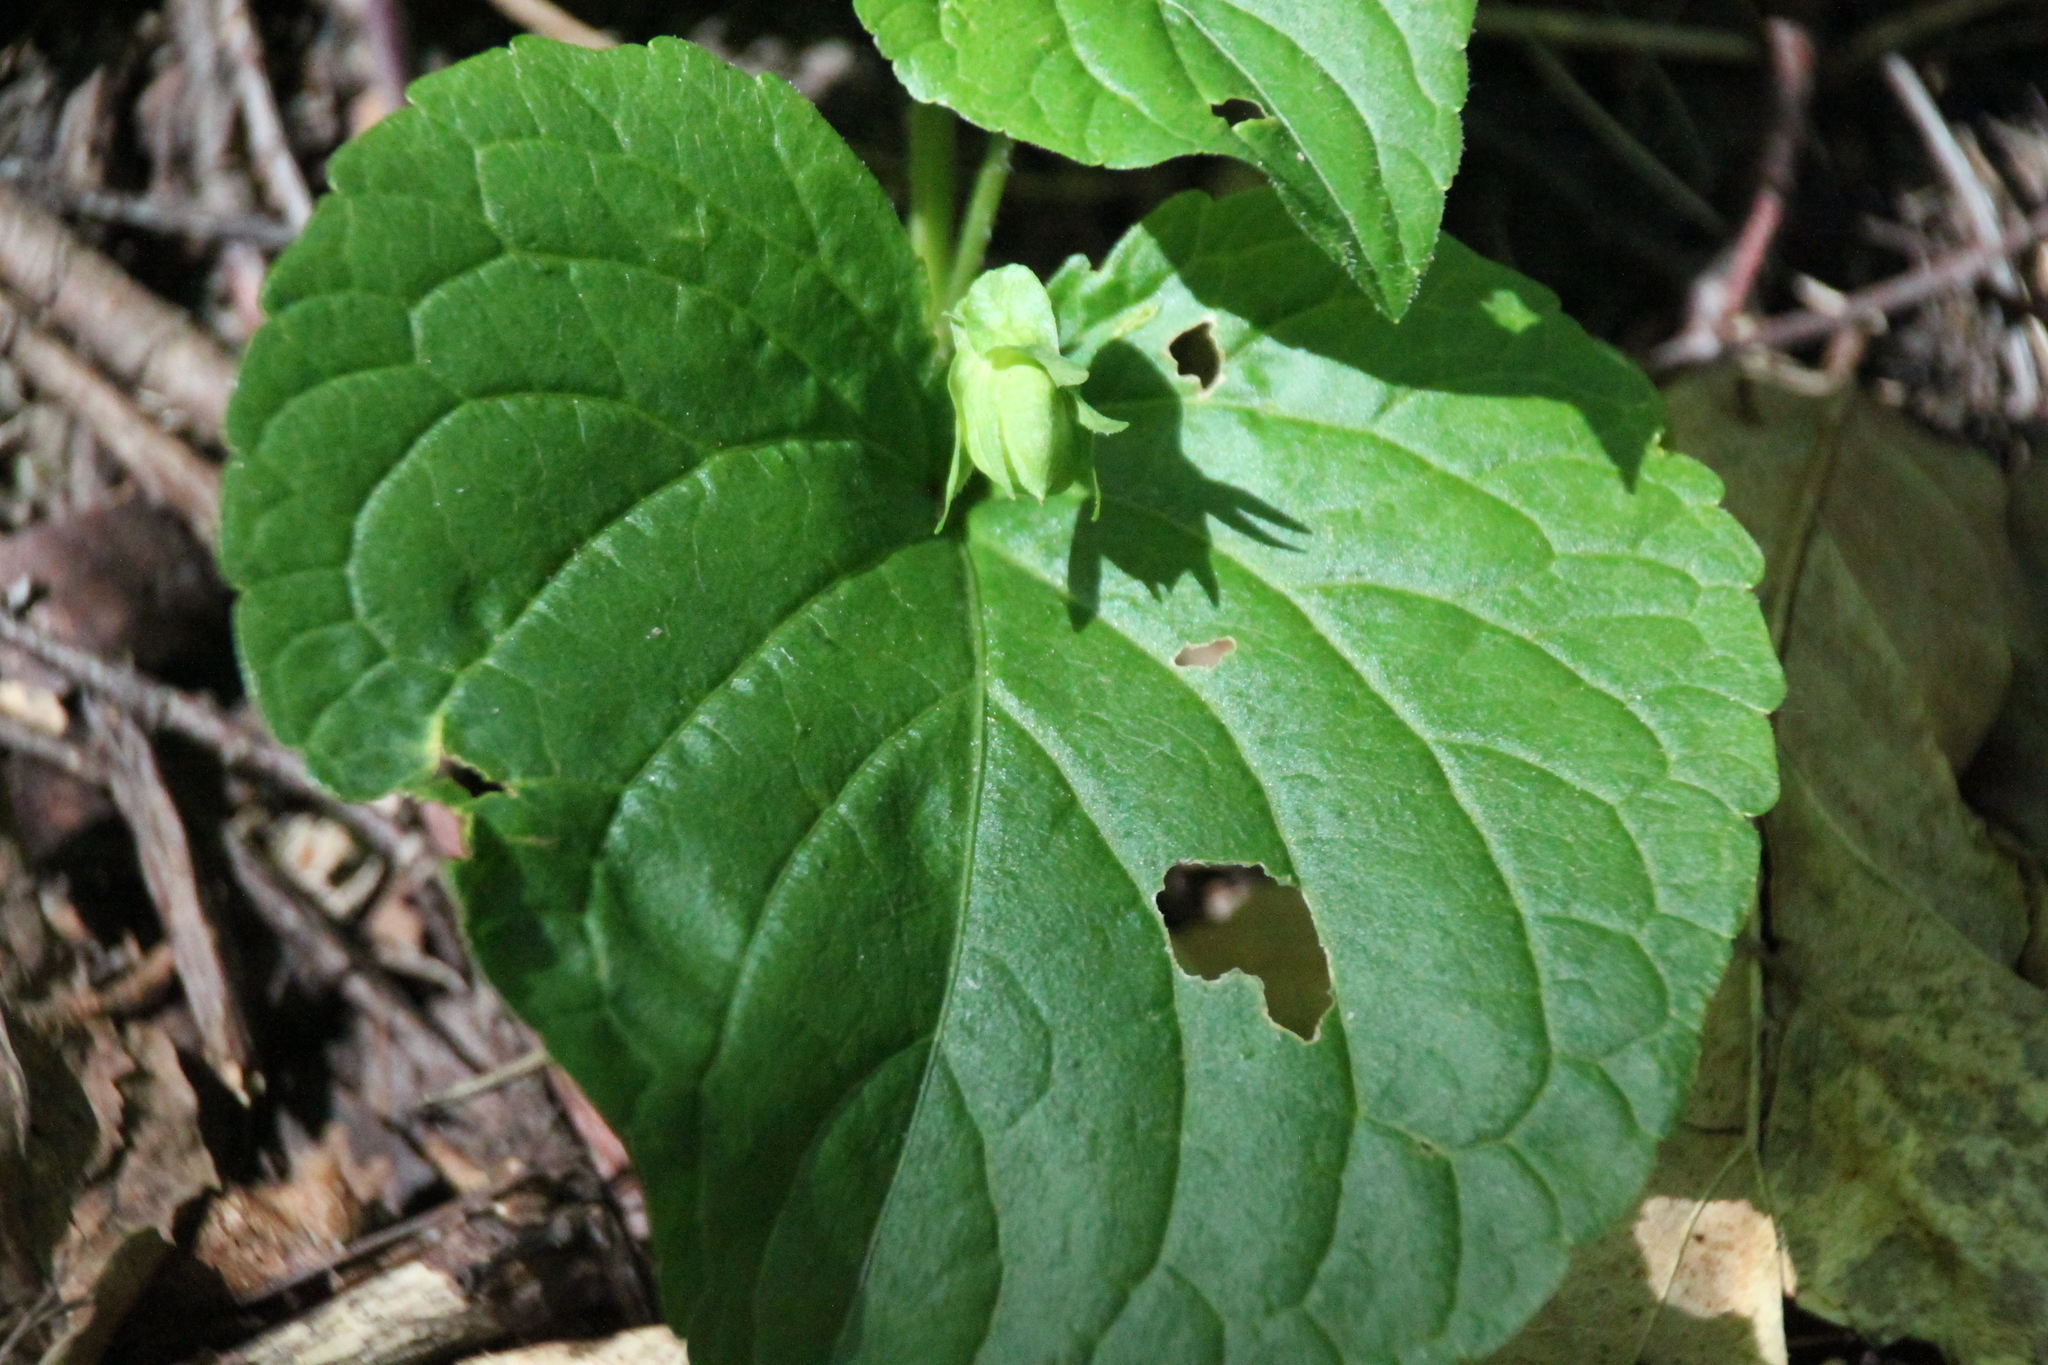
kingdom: Plantae
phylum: Tracheophyta
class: Magnoliopsida
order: Malpighiales
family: Violaceae
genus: Viola
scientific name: Viola mirabilis
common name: Wonder violet
